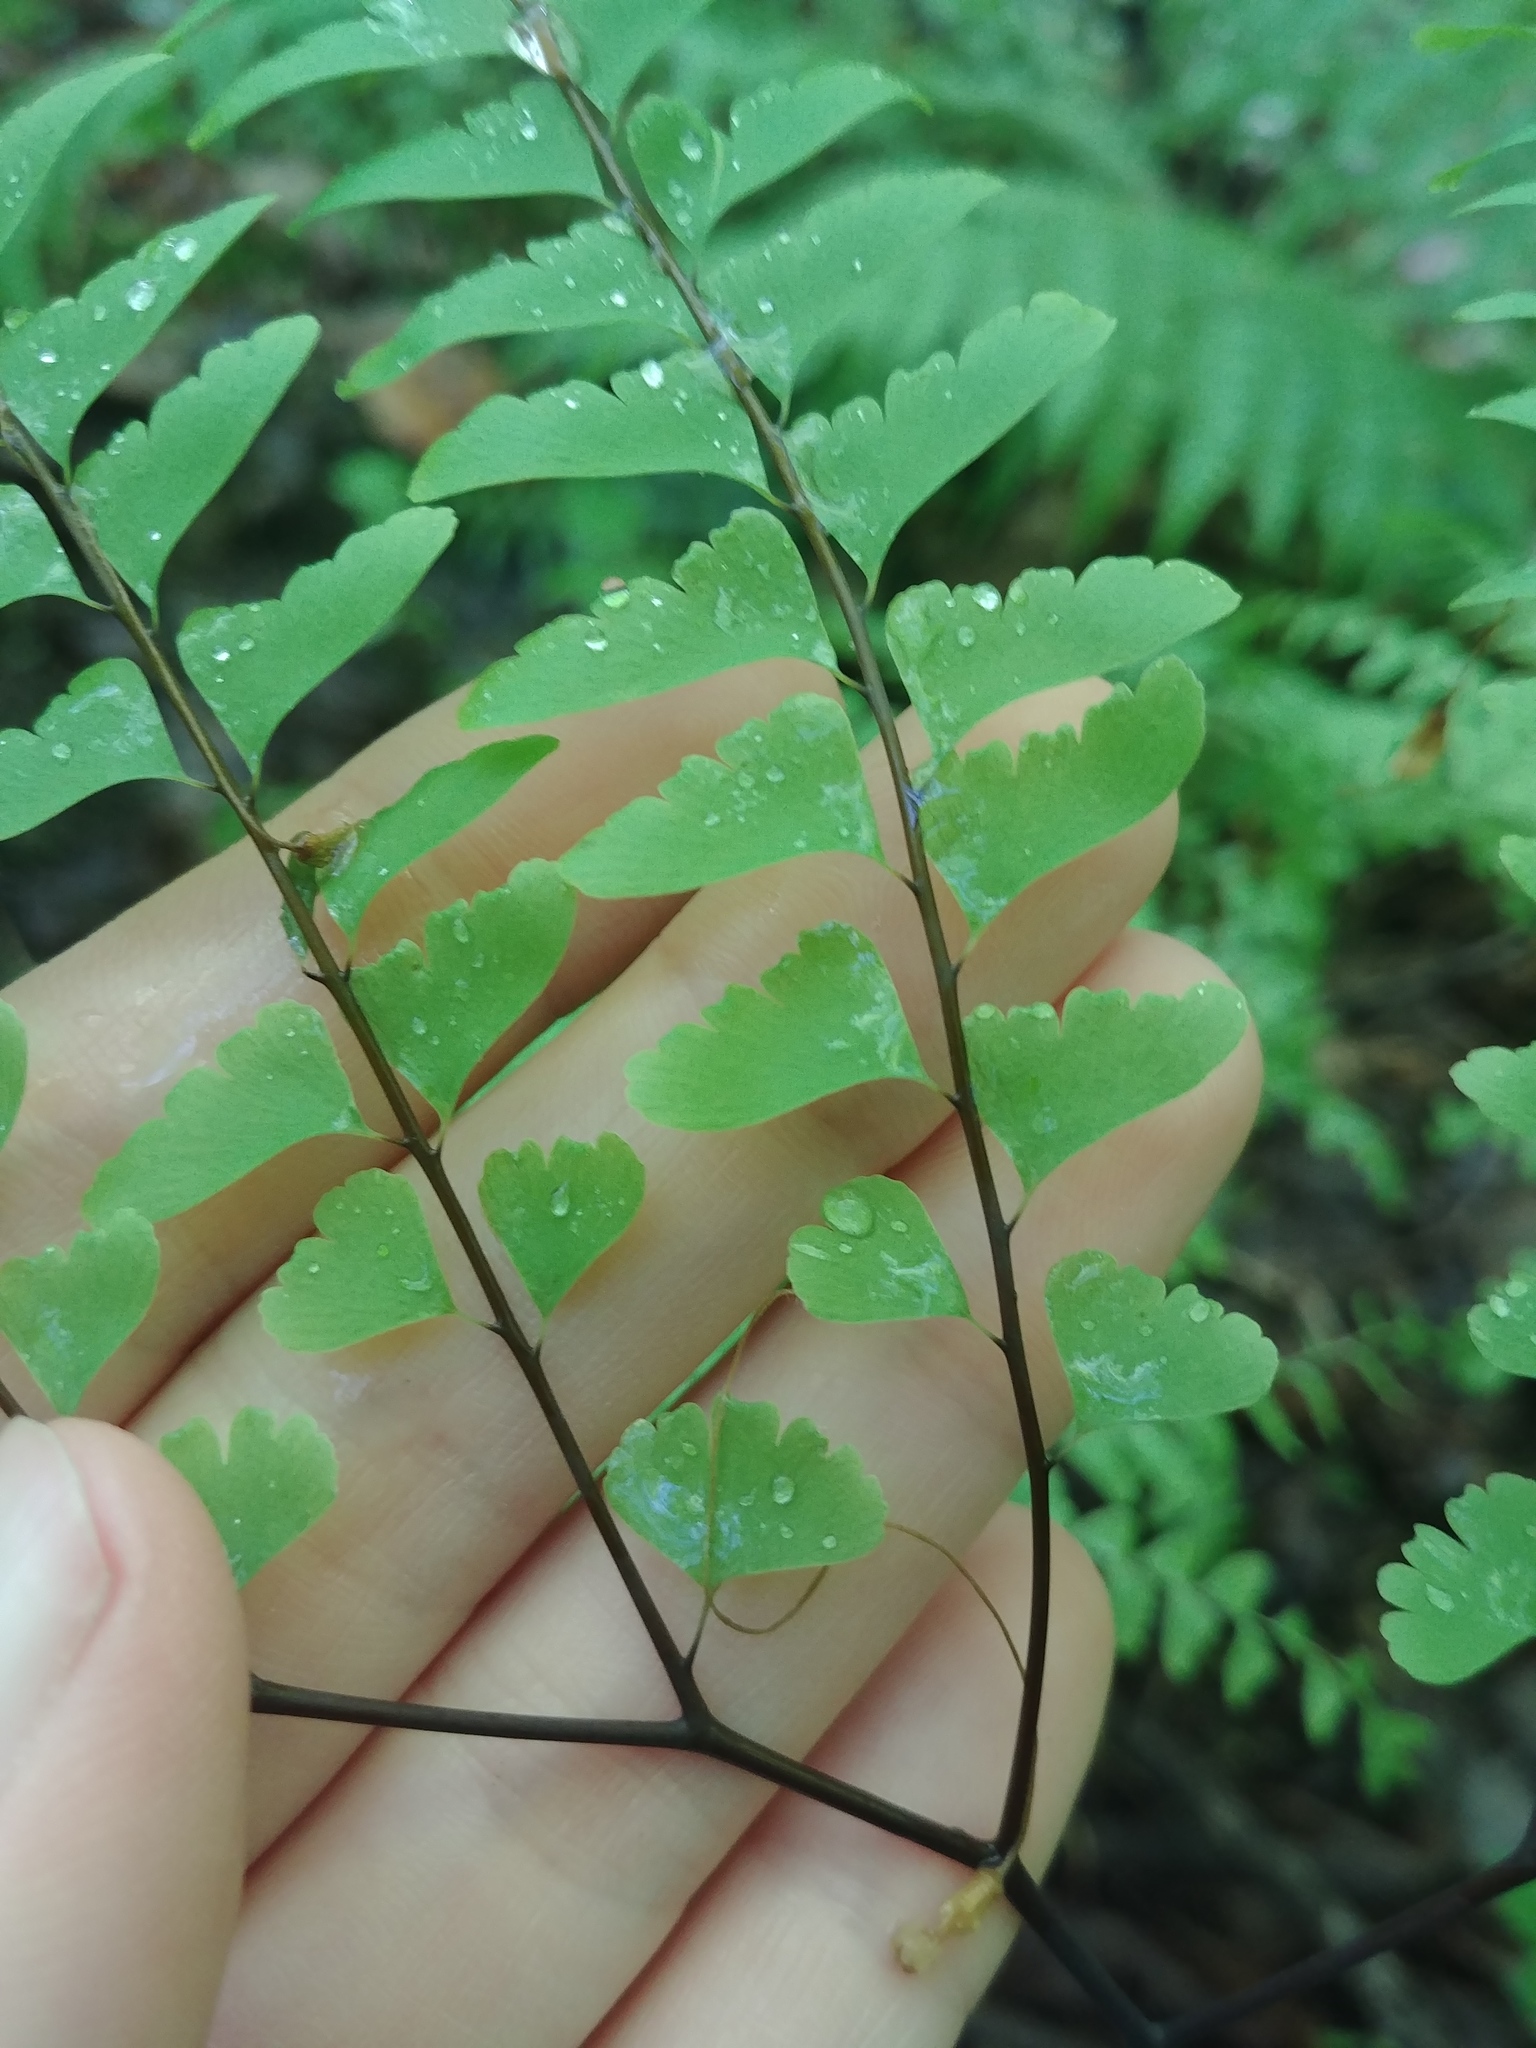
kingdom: Plantae
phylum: Tracheophyta
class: Polypodiopsida
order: Polypodiales
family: Pteridaceae
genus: Adiantum
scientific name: Adiantum pedatum
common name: Five-finger fern
